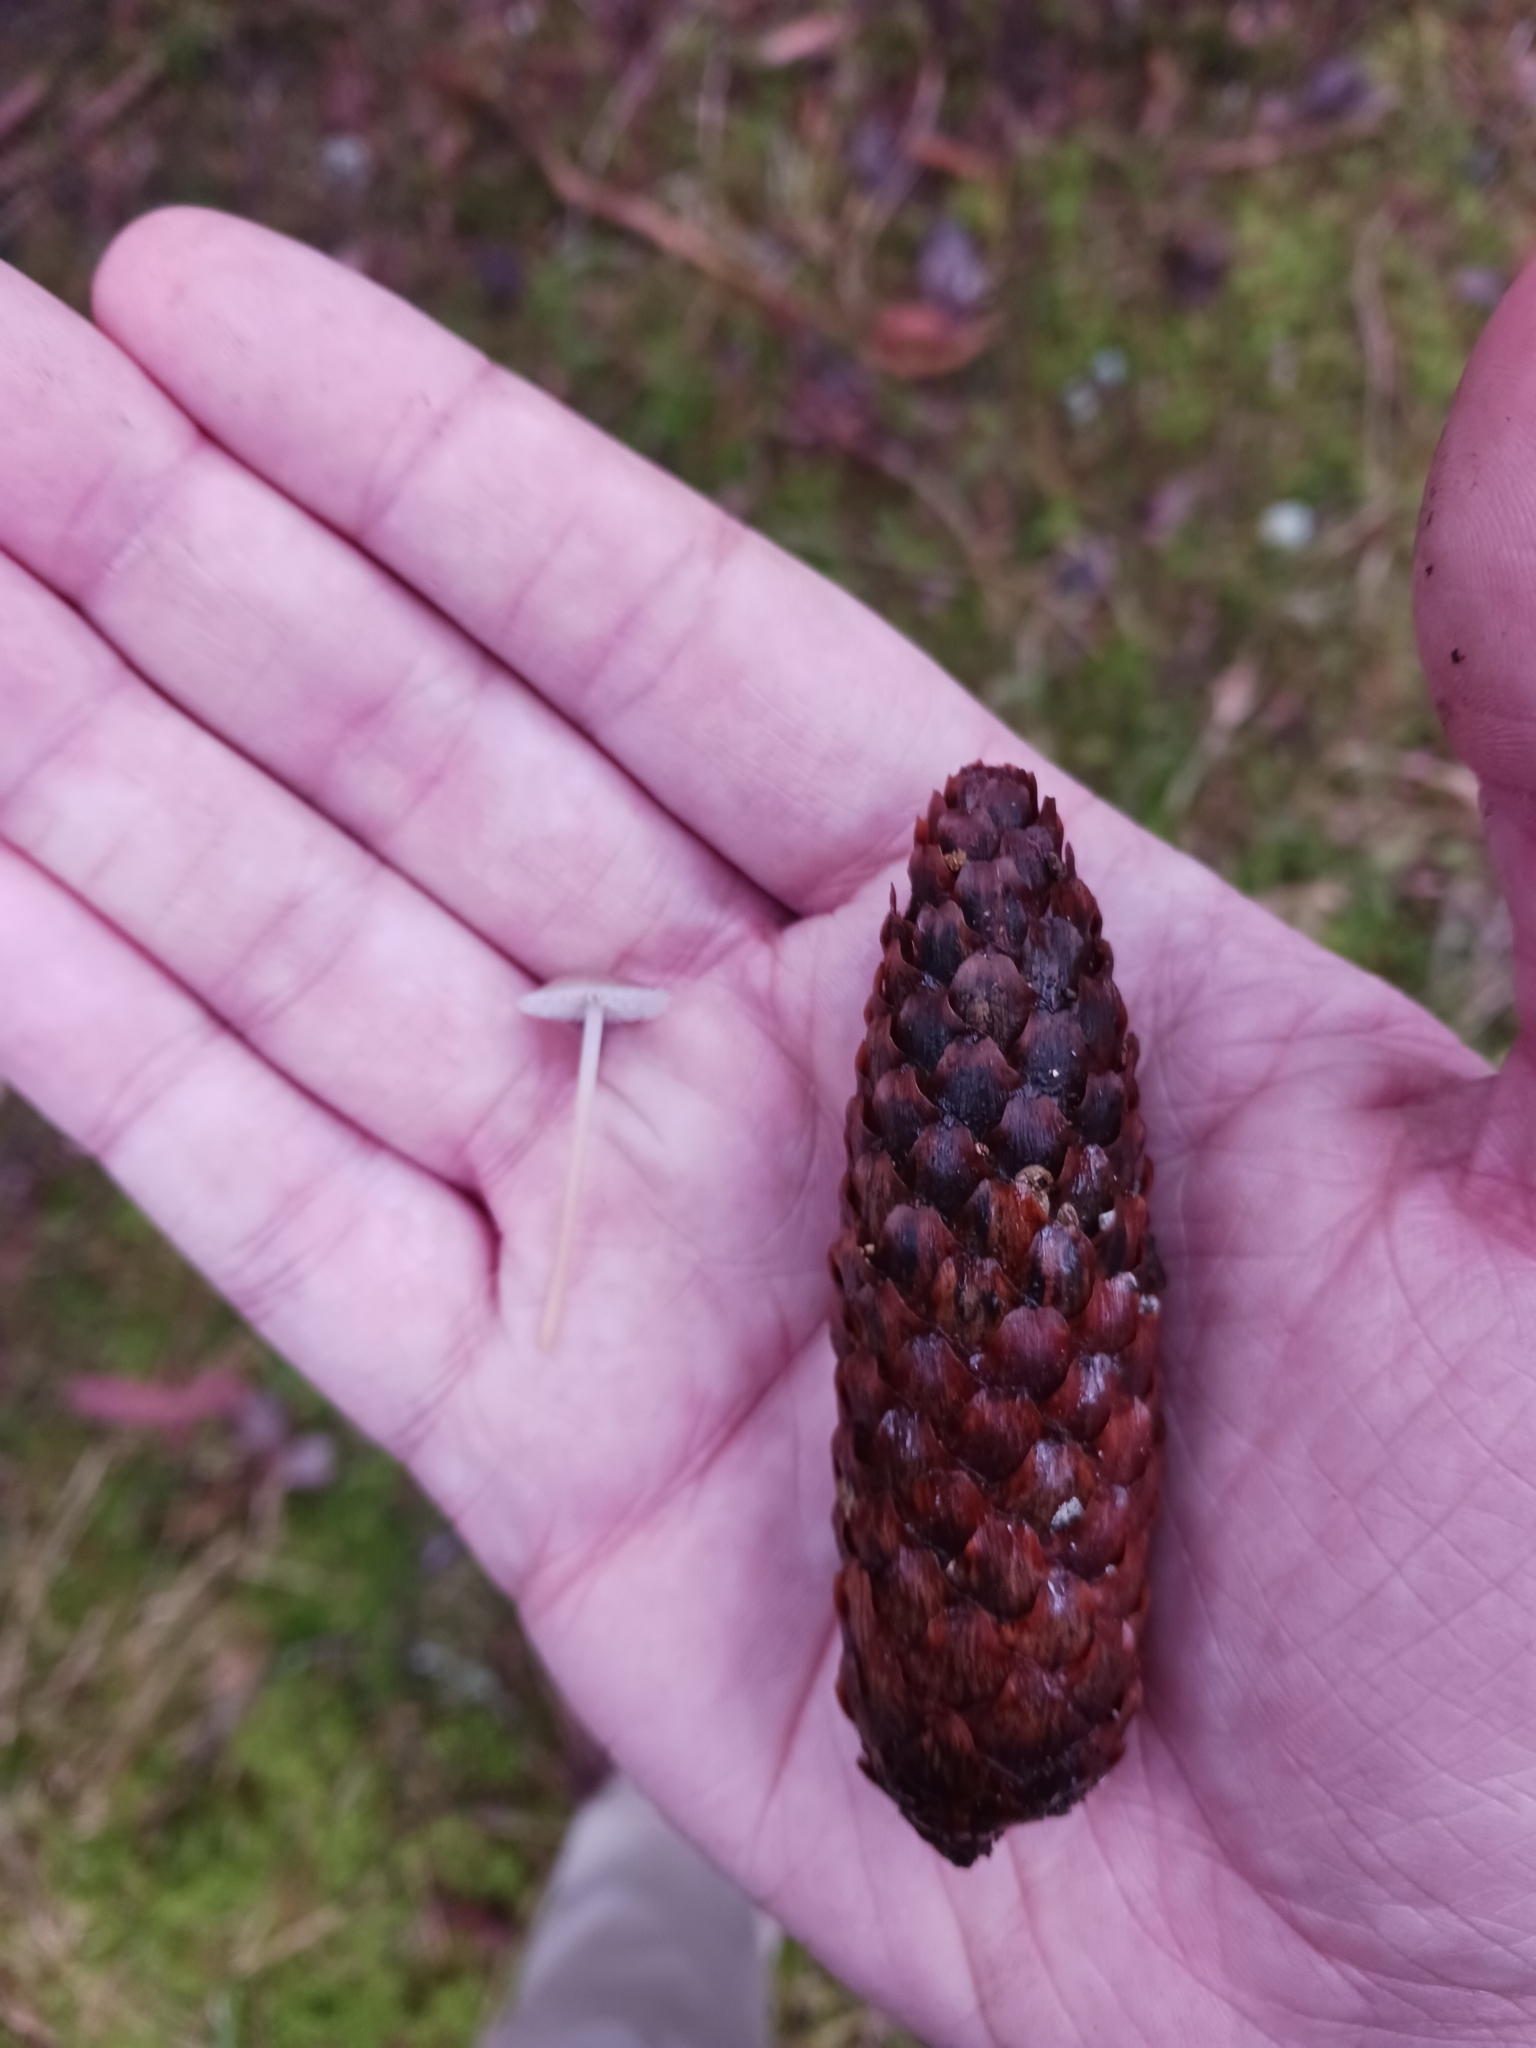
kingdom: Fungi
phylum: Basidiomycota
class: Agaricomycetes
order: Agaricales
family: Physalacriaceae
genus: Strobilurus
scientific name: Strobilurus conigenus
